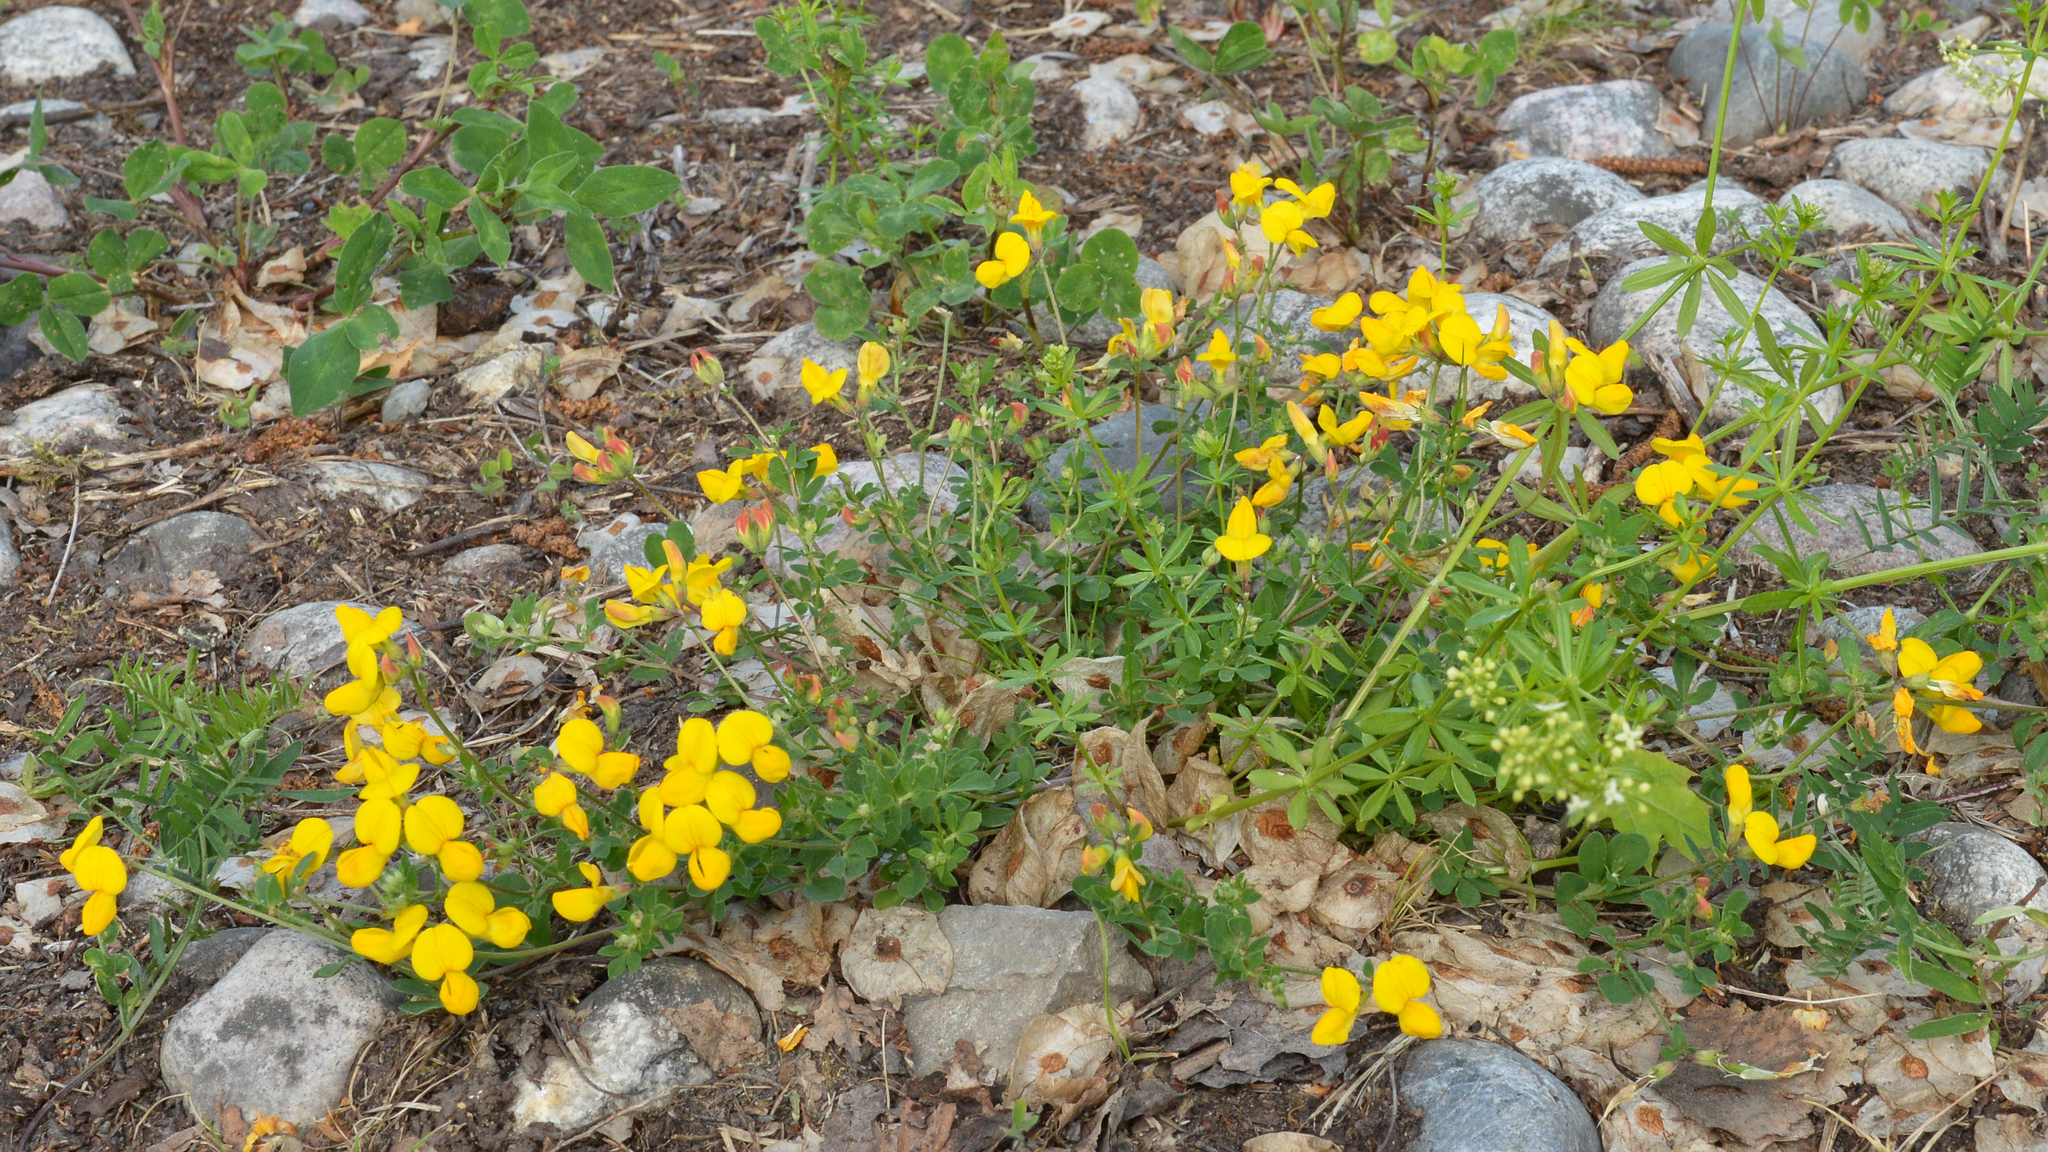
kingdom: Plantae
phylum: Tracheophyta
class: Magnoliopsida
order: Fabales
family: Fabaceae
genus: Lotus
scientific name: Lotus corniculatus
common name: Common bird's-foot-trefoil
